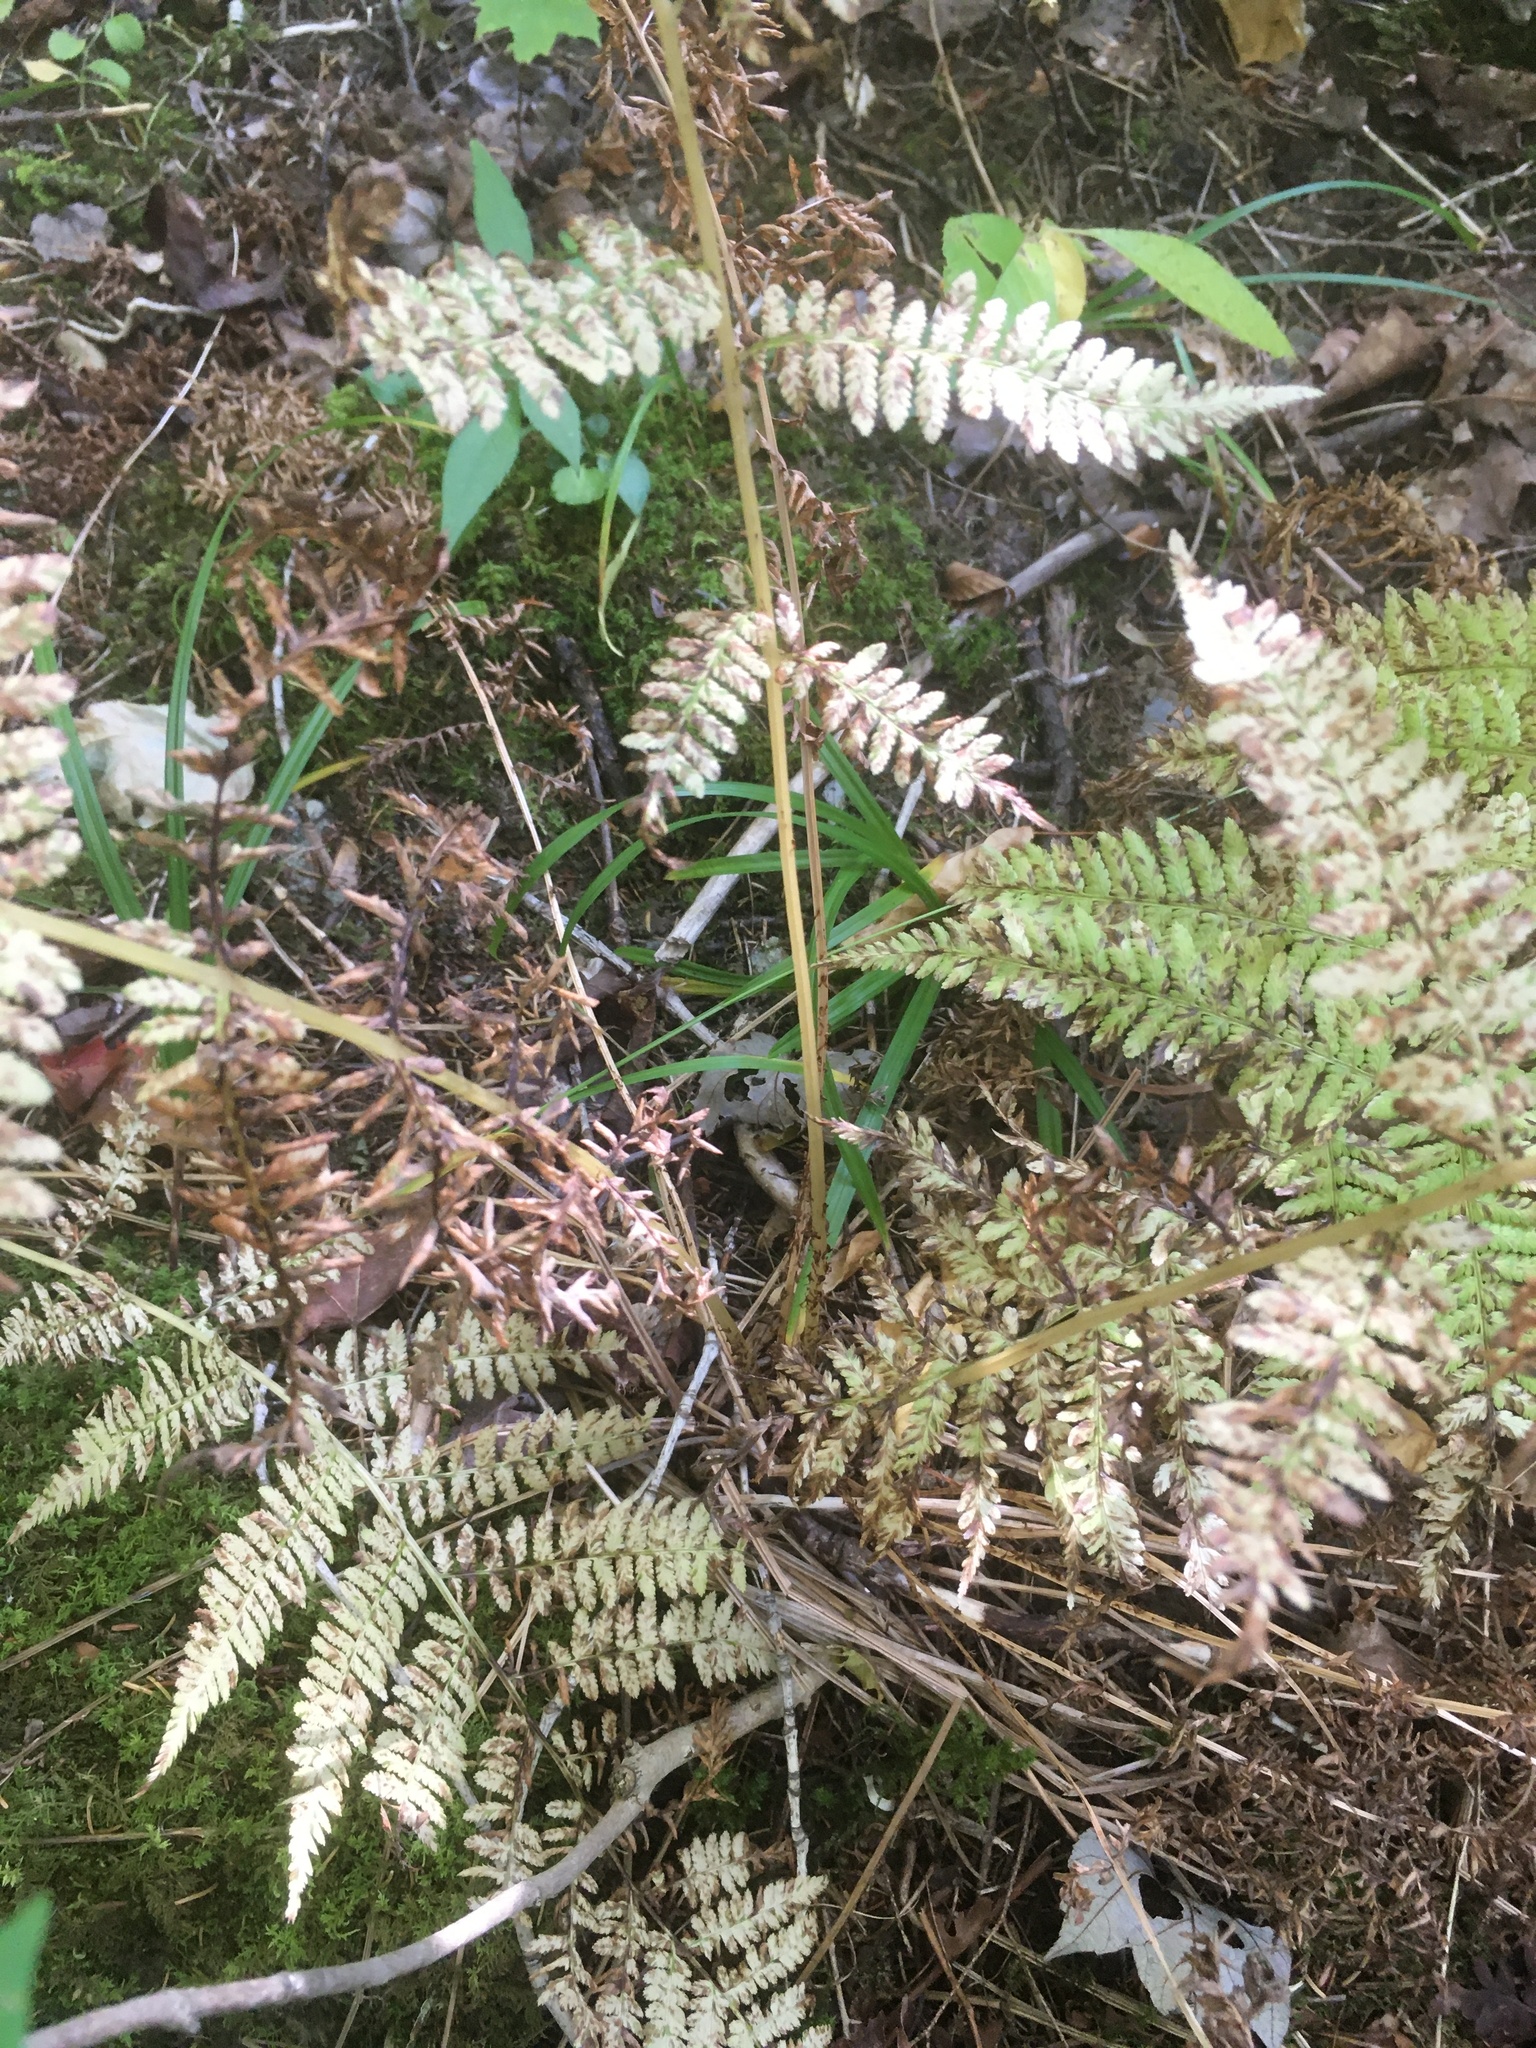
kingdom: Plantae
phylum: Tracheophyta
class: Polypodiopsida
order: Polypodiales
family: Athyriaceae
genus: Athyrium
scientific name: Athyrium angustum
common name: Northern lady fern
